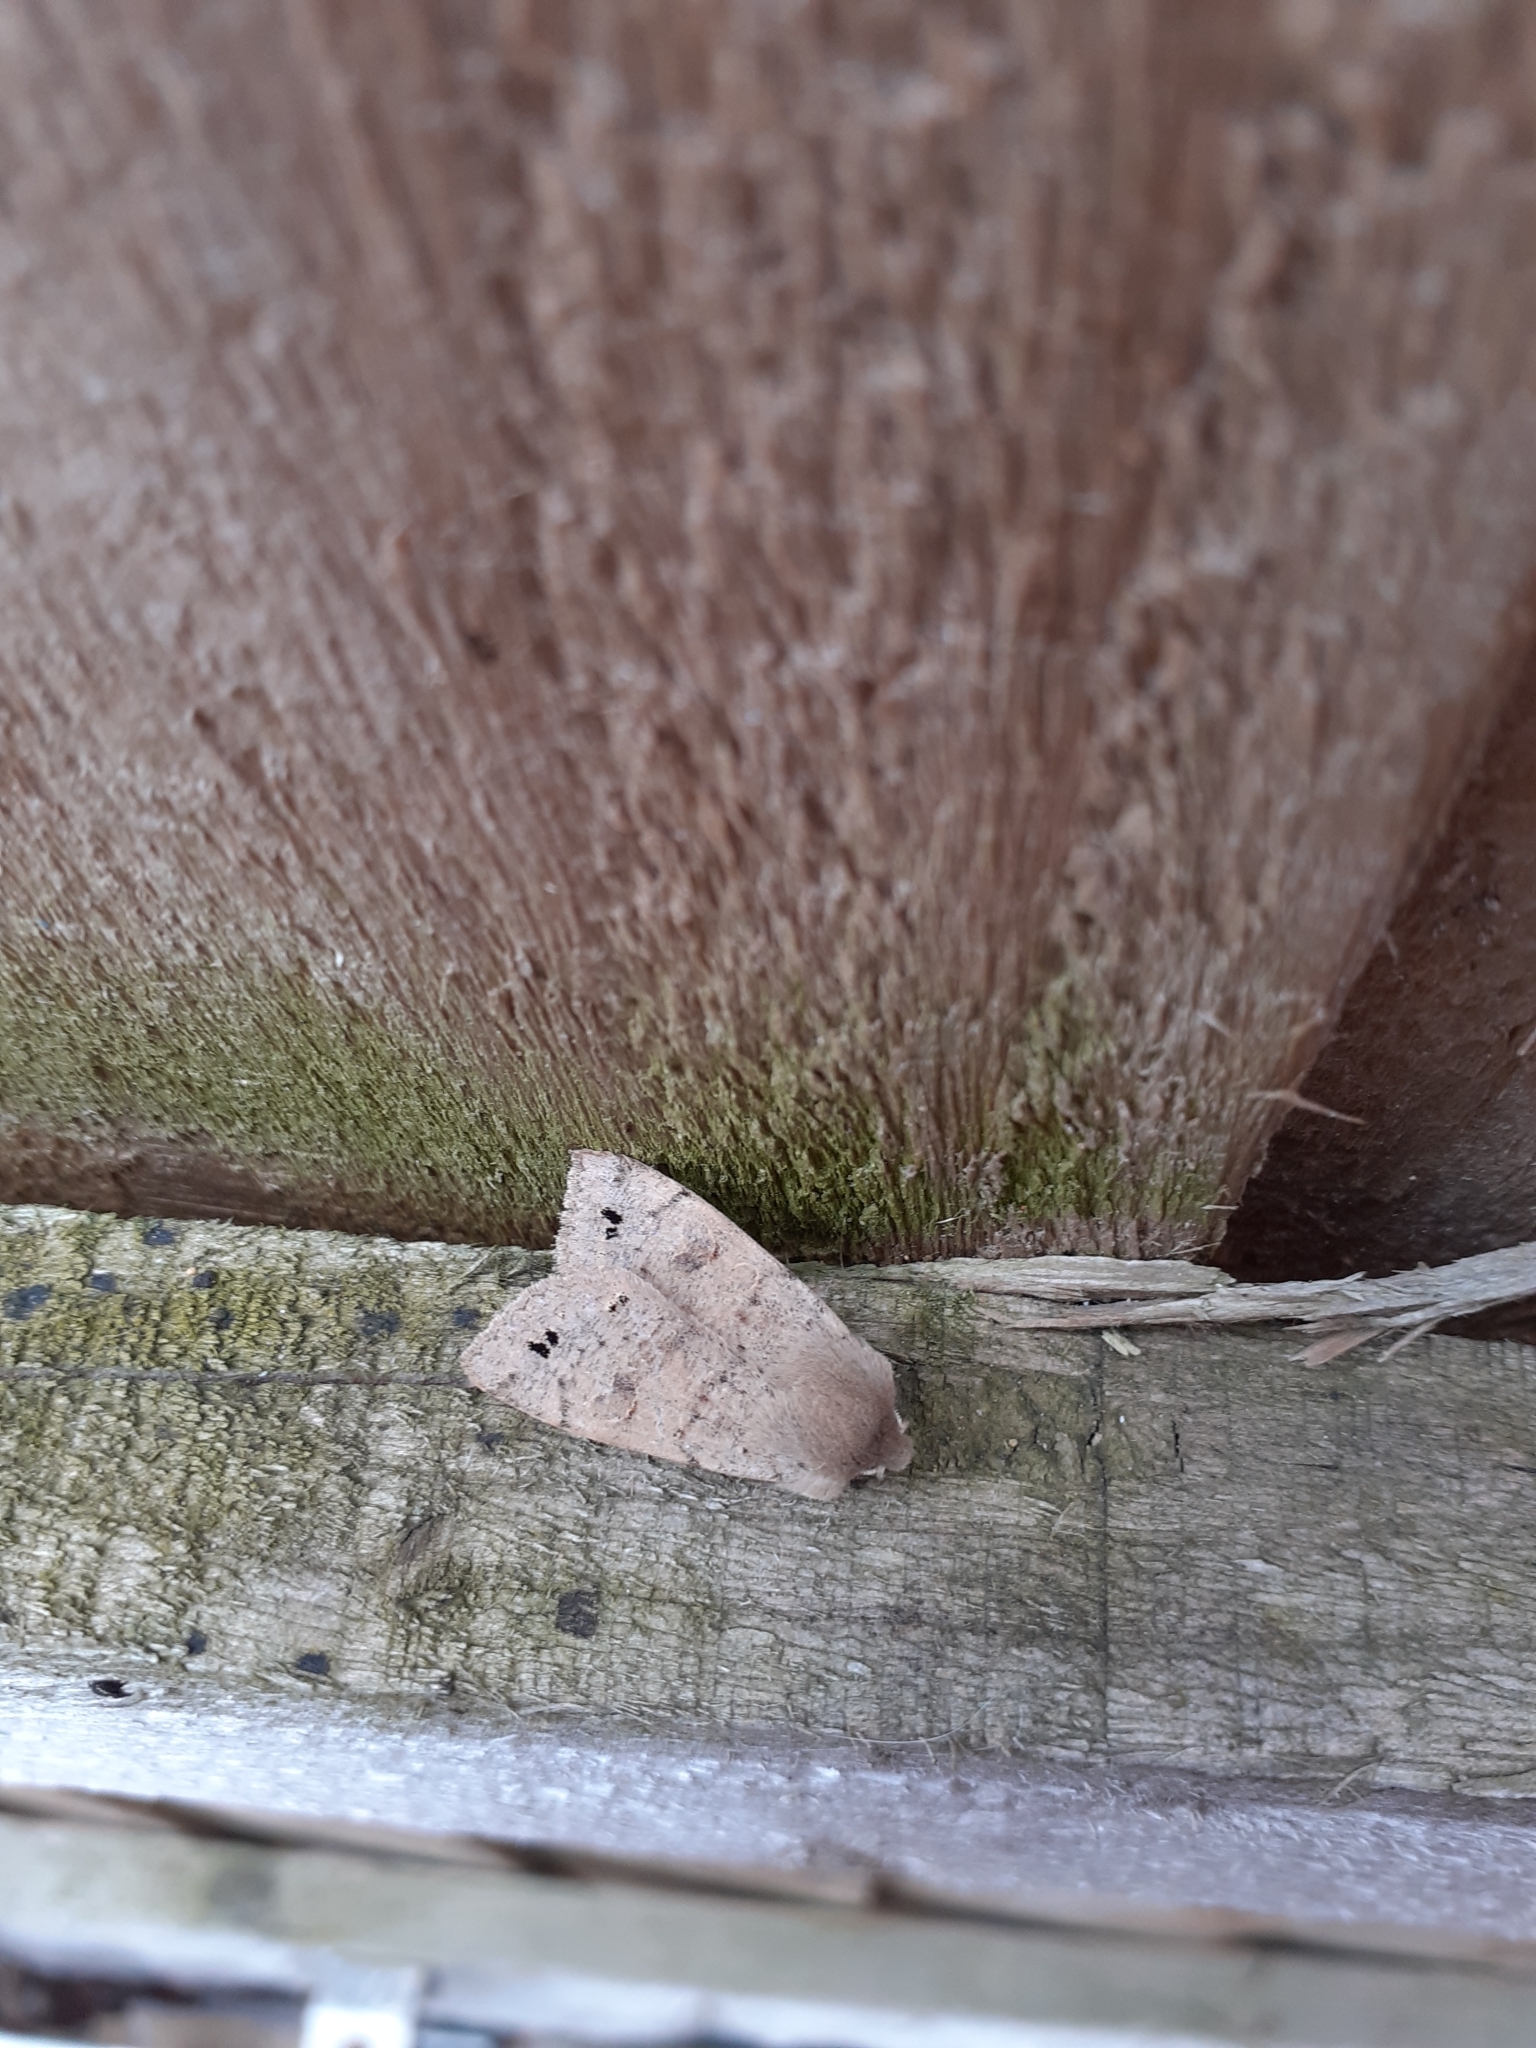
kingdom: Animalia
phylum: Arthropoda
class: Insecta
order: Lepidoptera
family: Noctuidae
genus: Anorthoa
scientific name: Anorthoa munda
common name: Twin-spotted quaker
